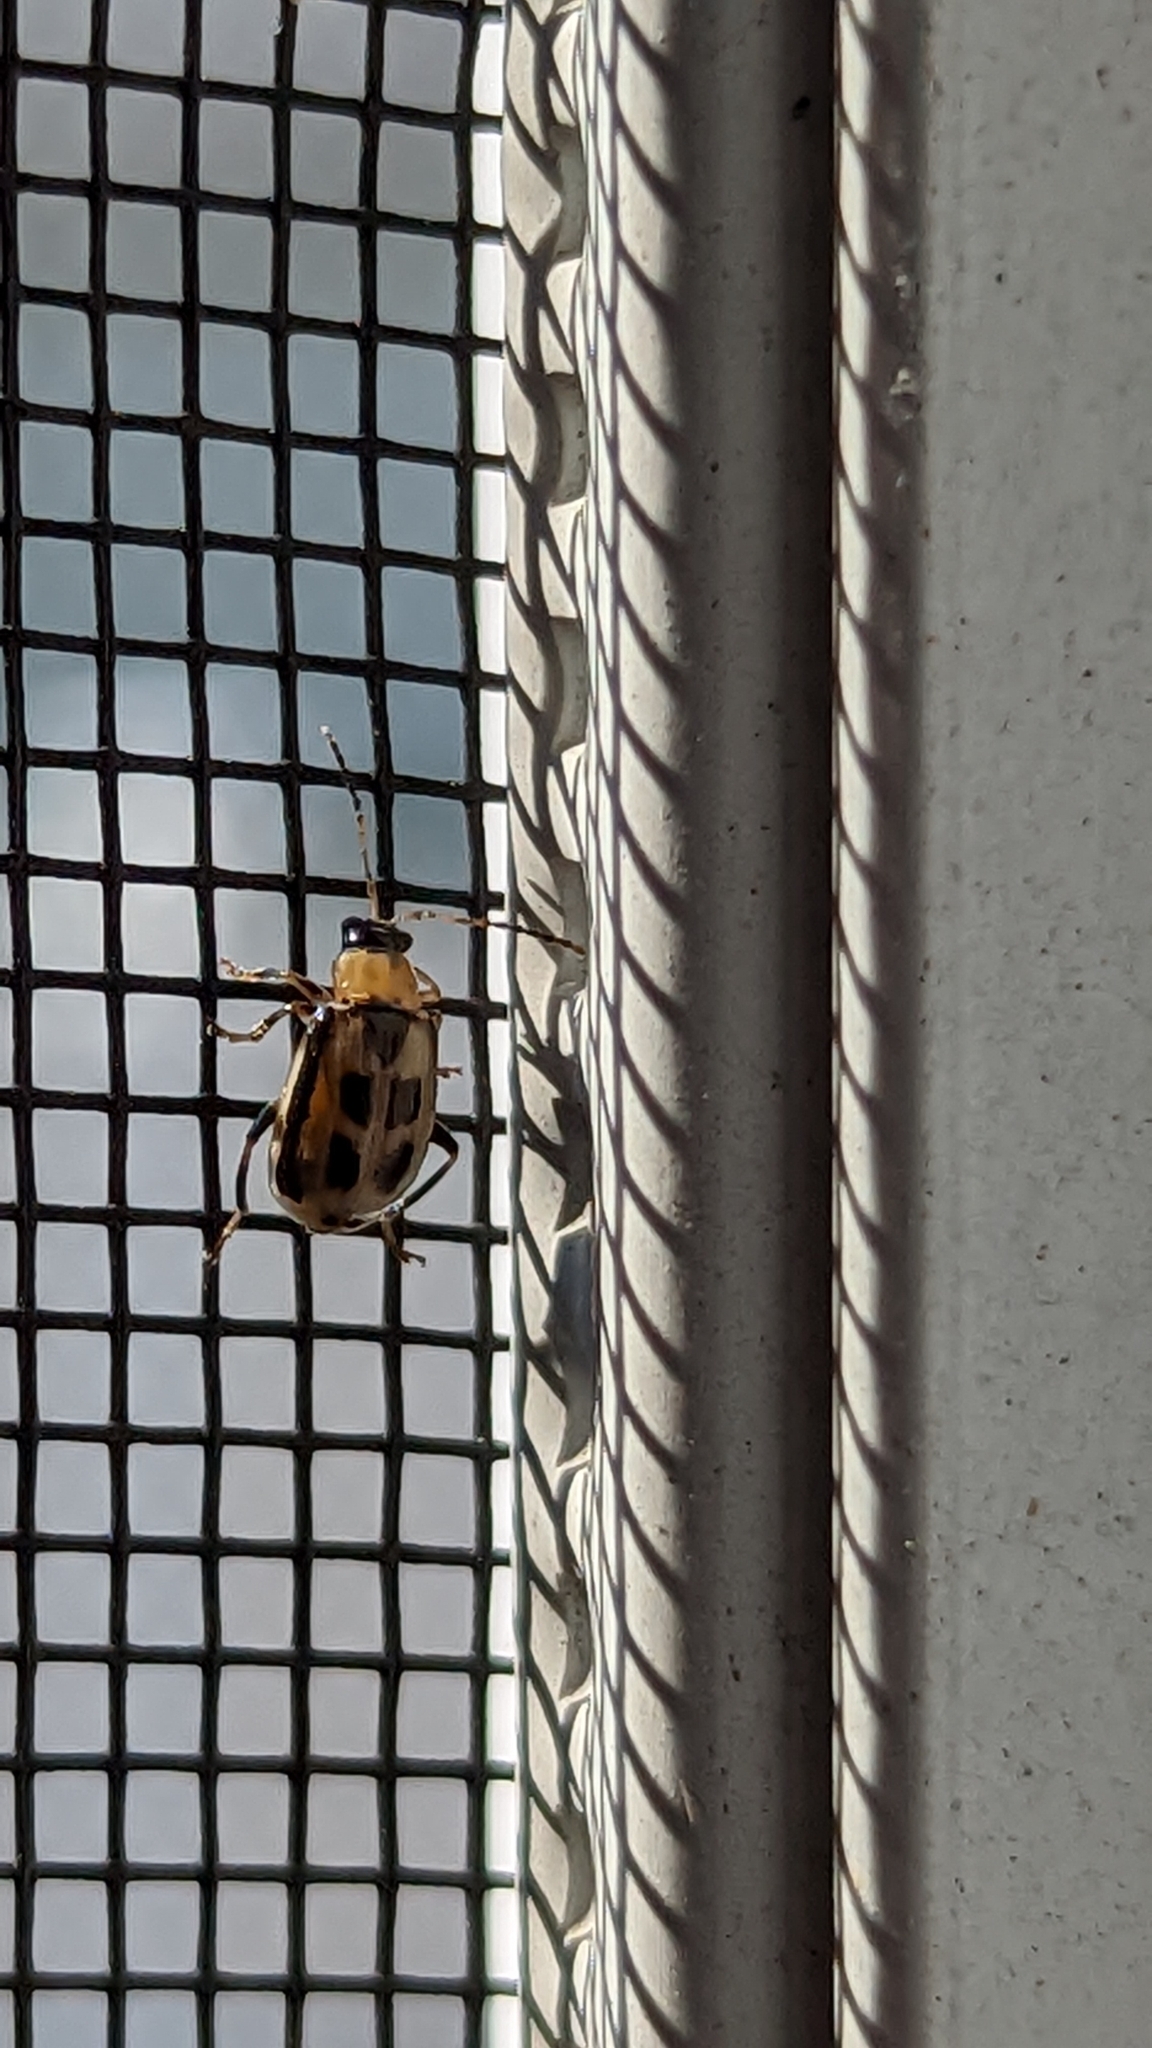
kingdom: Animalia
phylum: Arthropoda
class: Insecta
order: Coleoptera
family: Chrysomelidae
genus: Cerotoma
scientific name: Cerotoma trifurcata
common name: Bean leaf beetle
